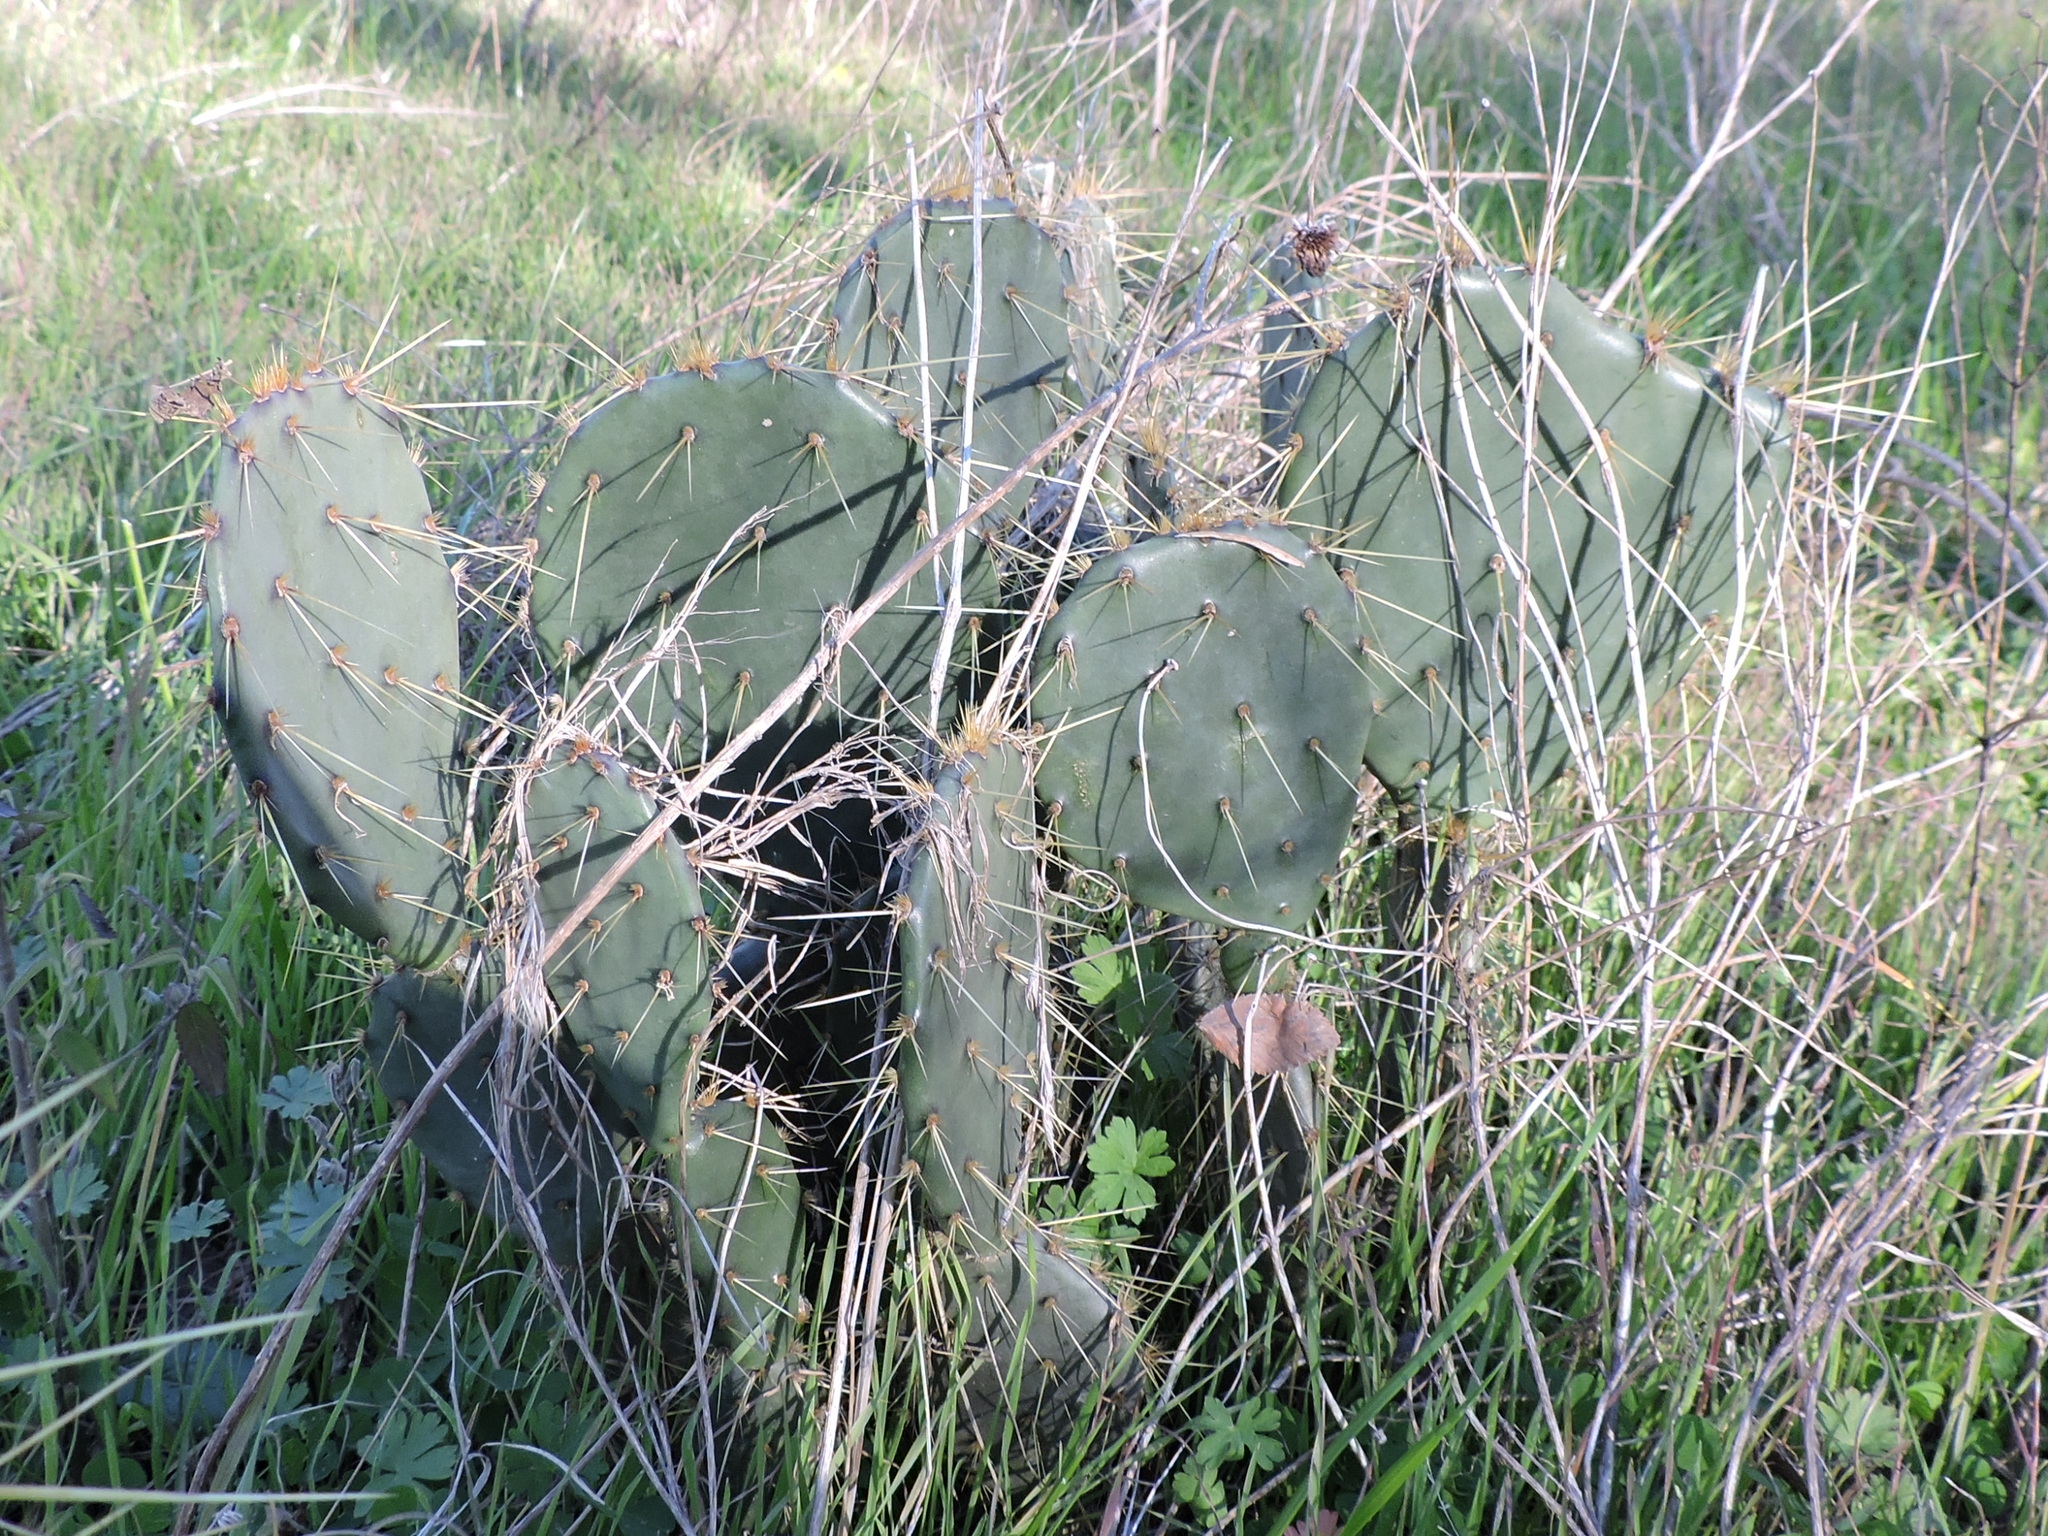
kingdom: Plantae
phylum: Tracheophyta
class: Magnoliopsida
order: Caryophyllales
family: Cactaceae
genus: Opuntia
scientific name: Opuntia engelmannii
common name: Cactus-apple
